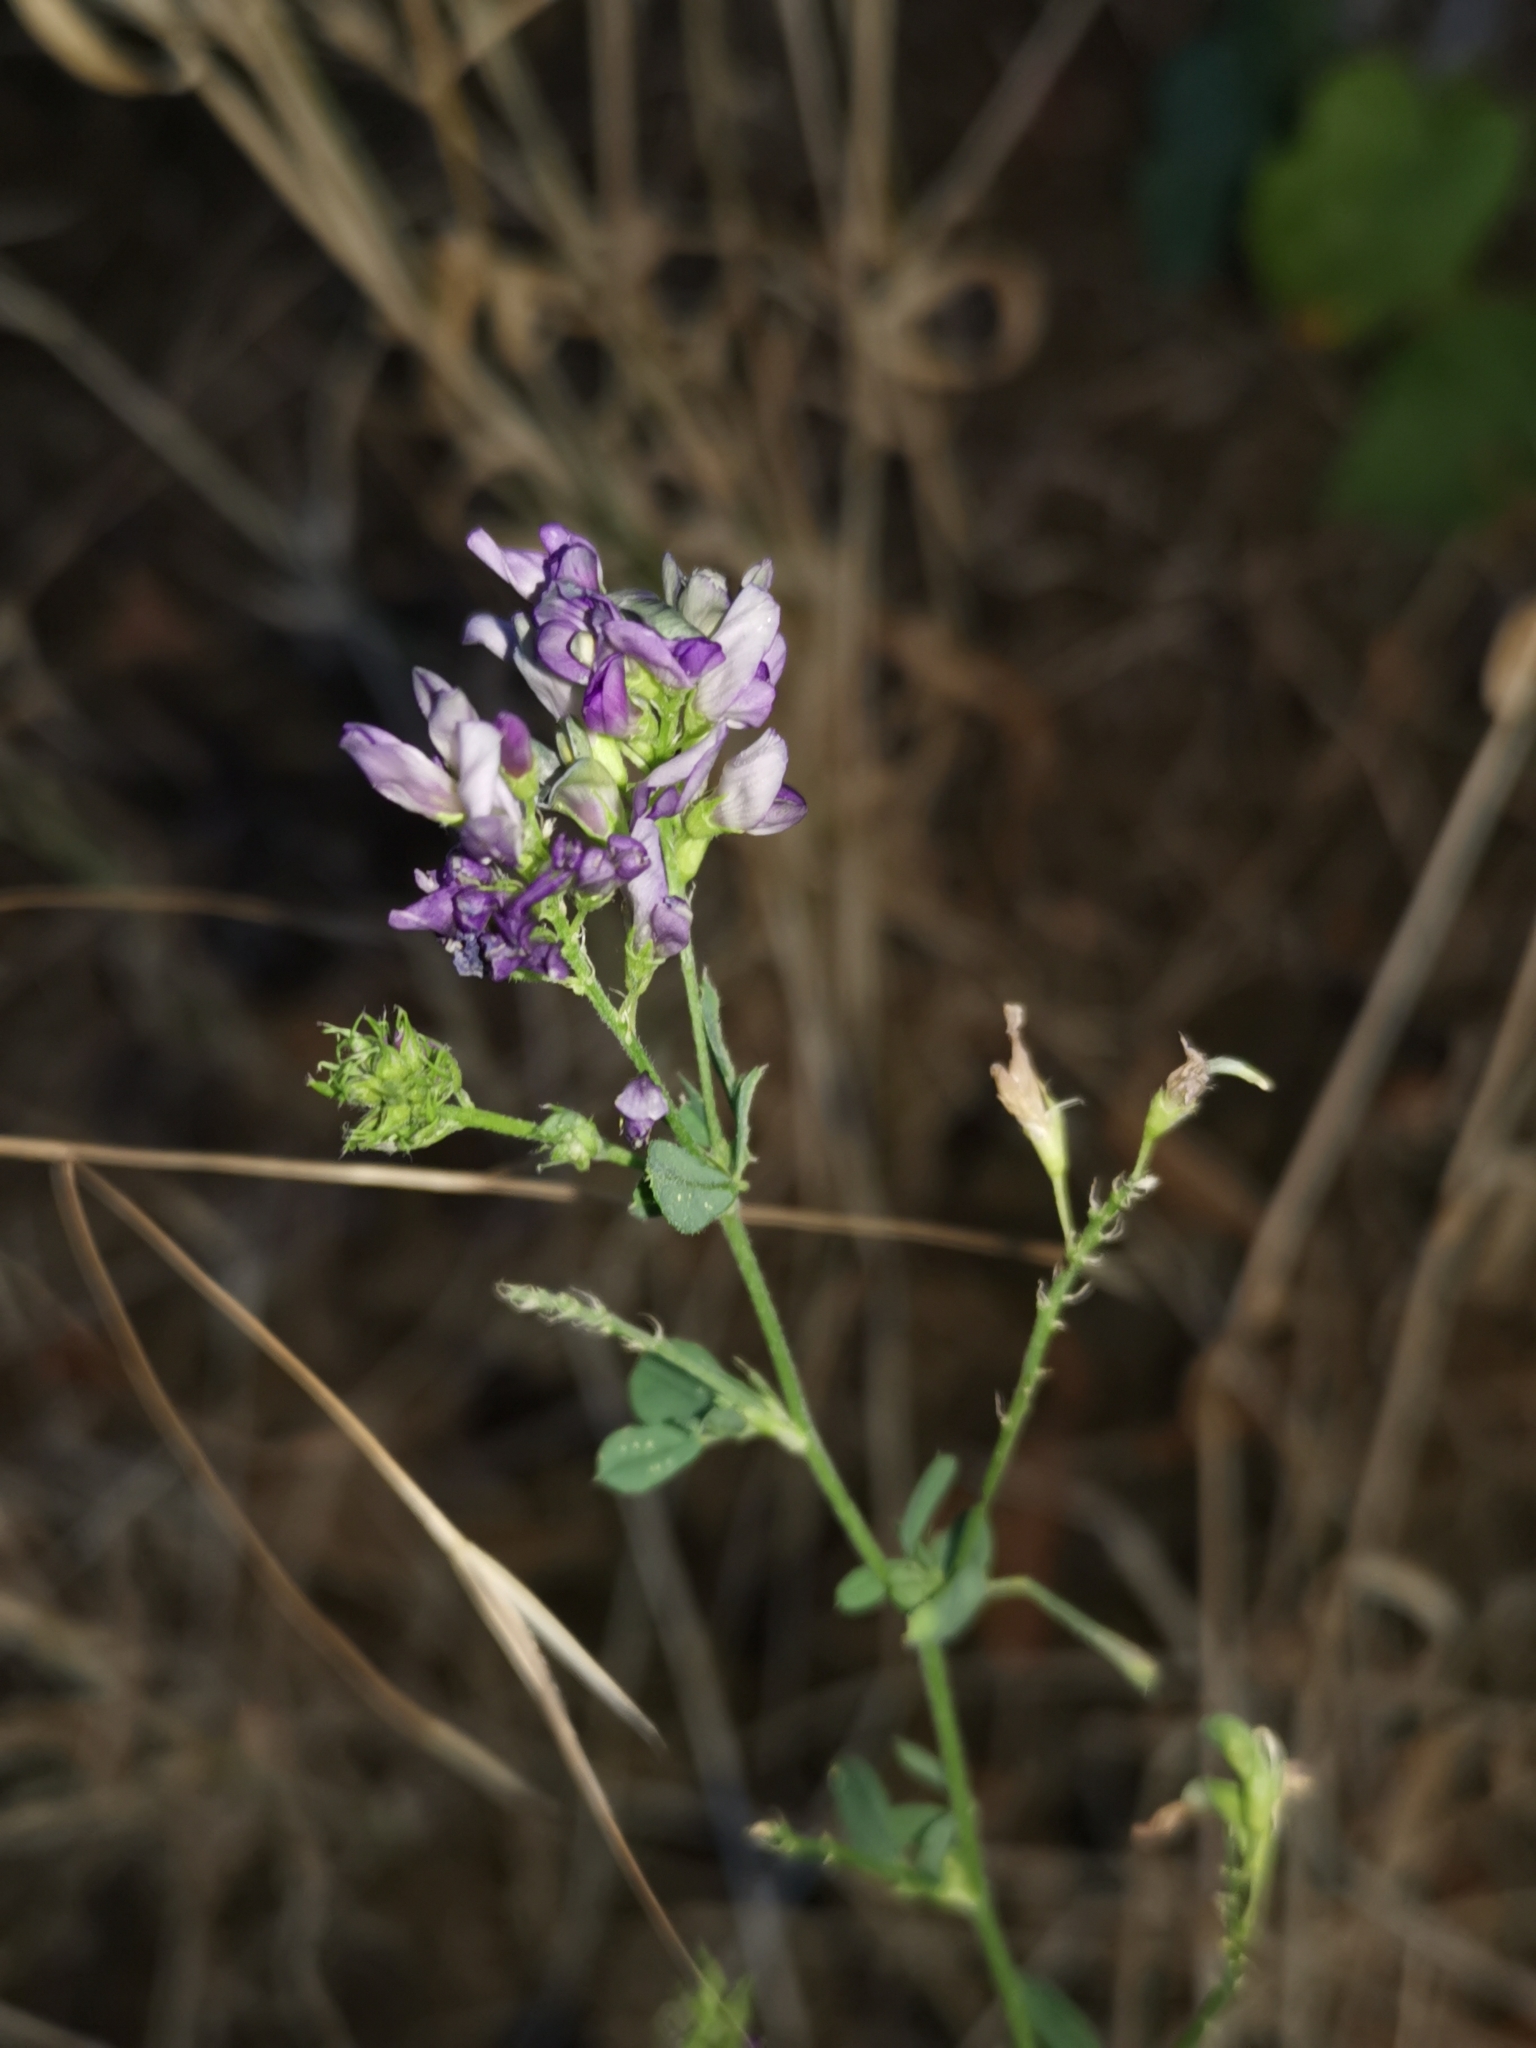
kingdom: Plantae
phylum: Tracheophyta
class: Magnoliopsida
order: Fabales
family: Fabaceae
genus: Medicago
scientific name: Medicago sativa
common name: Alfalfa
